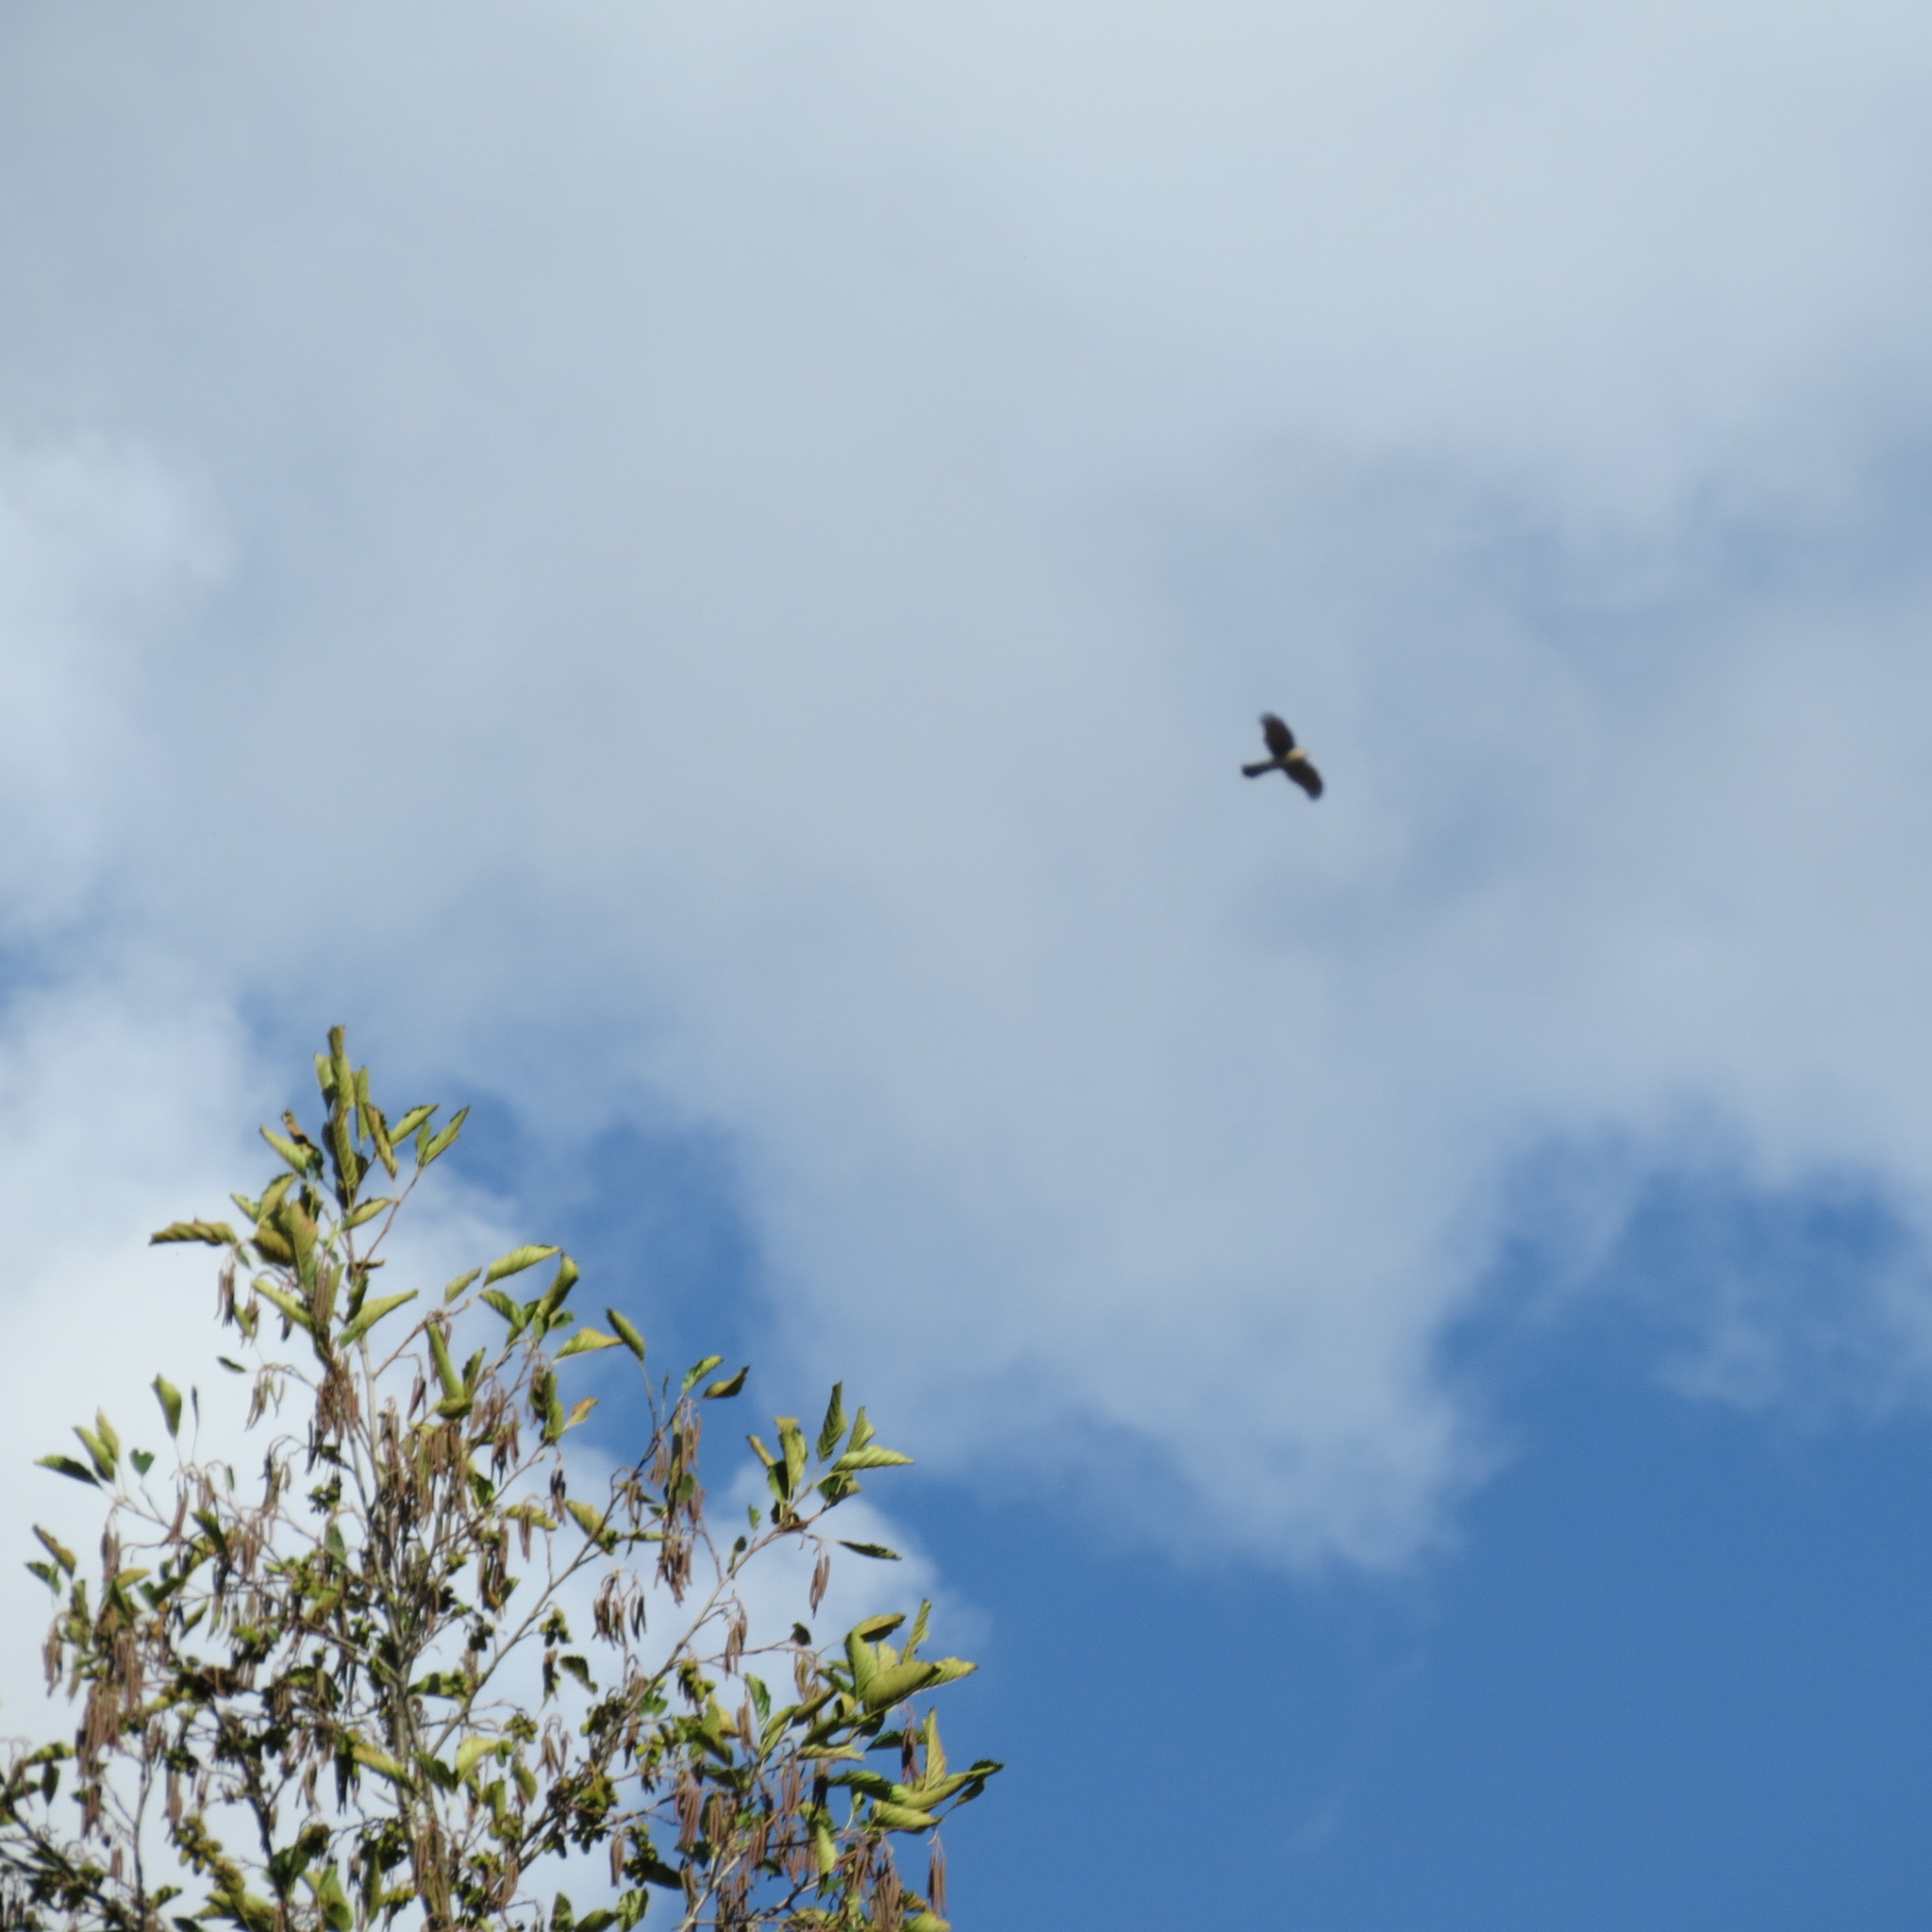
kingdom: Animalia
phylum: Chordata
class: Aves
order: Accipitriformes
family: Accipitridae
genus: Accipiter
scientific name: Accipiter nisus
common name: Eurasian sparrowhawk
